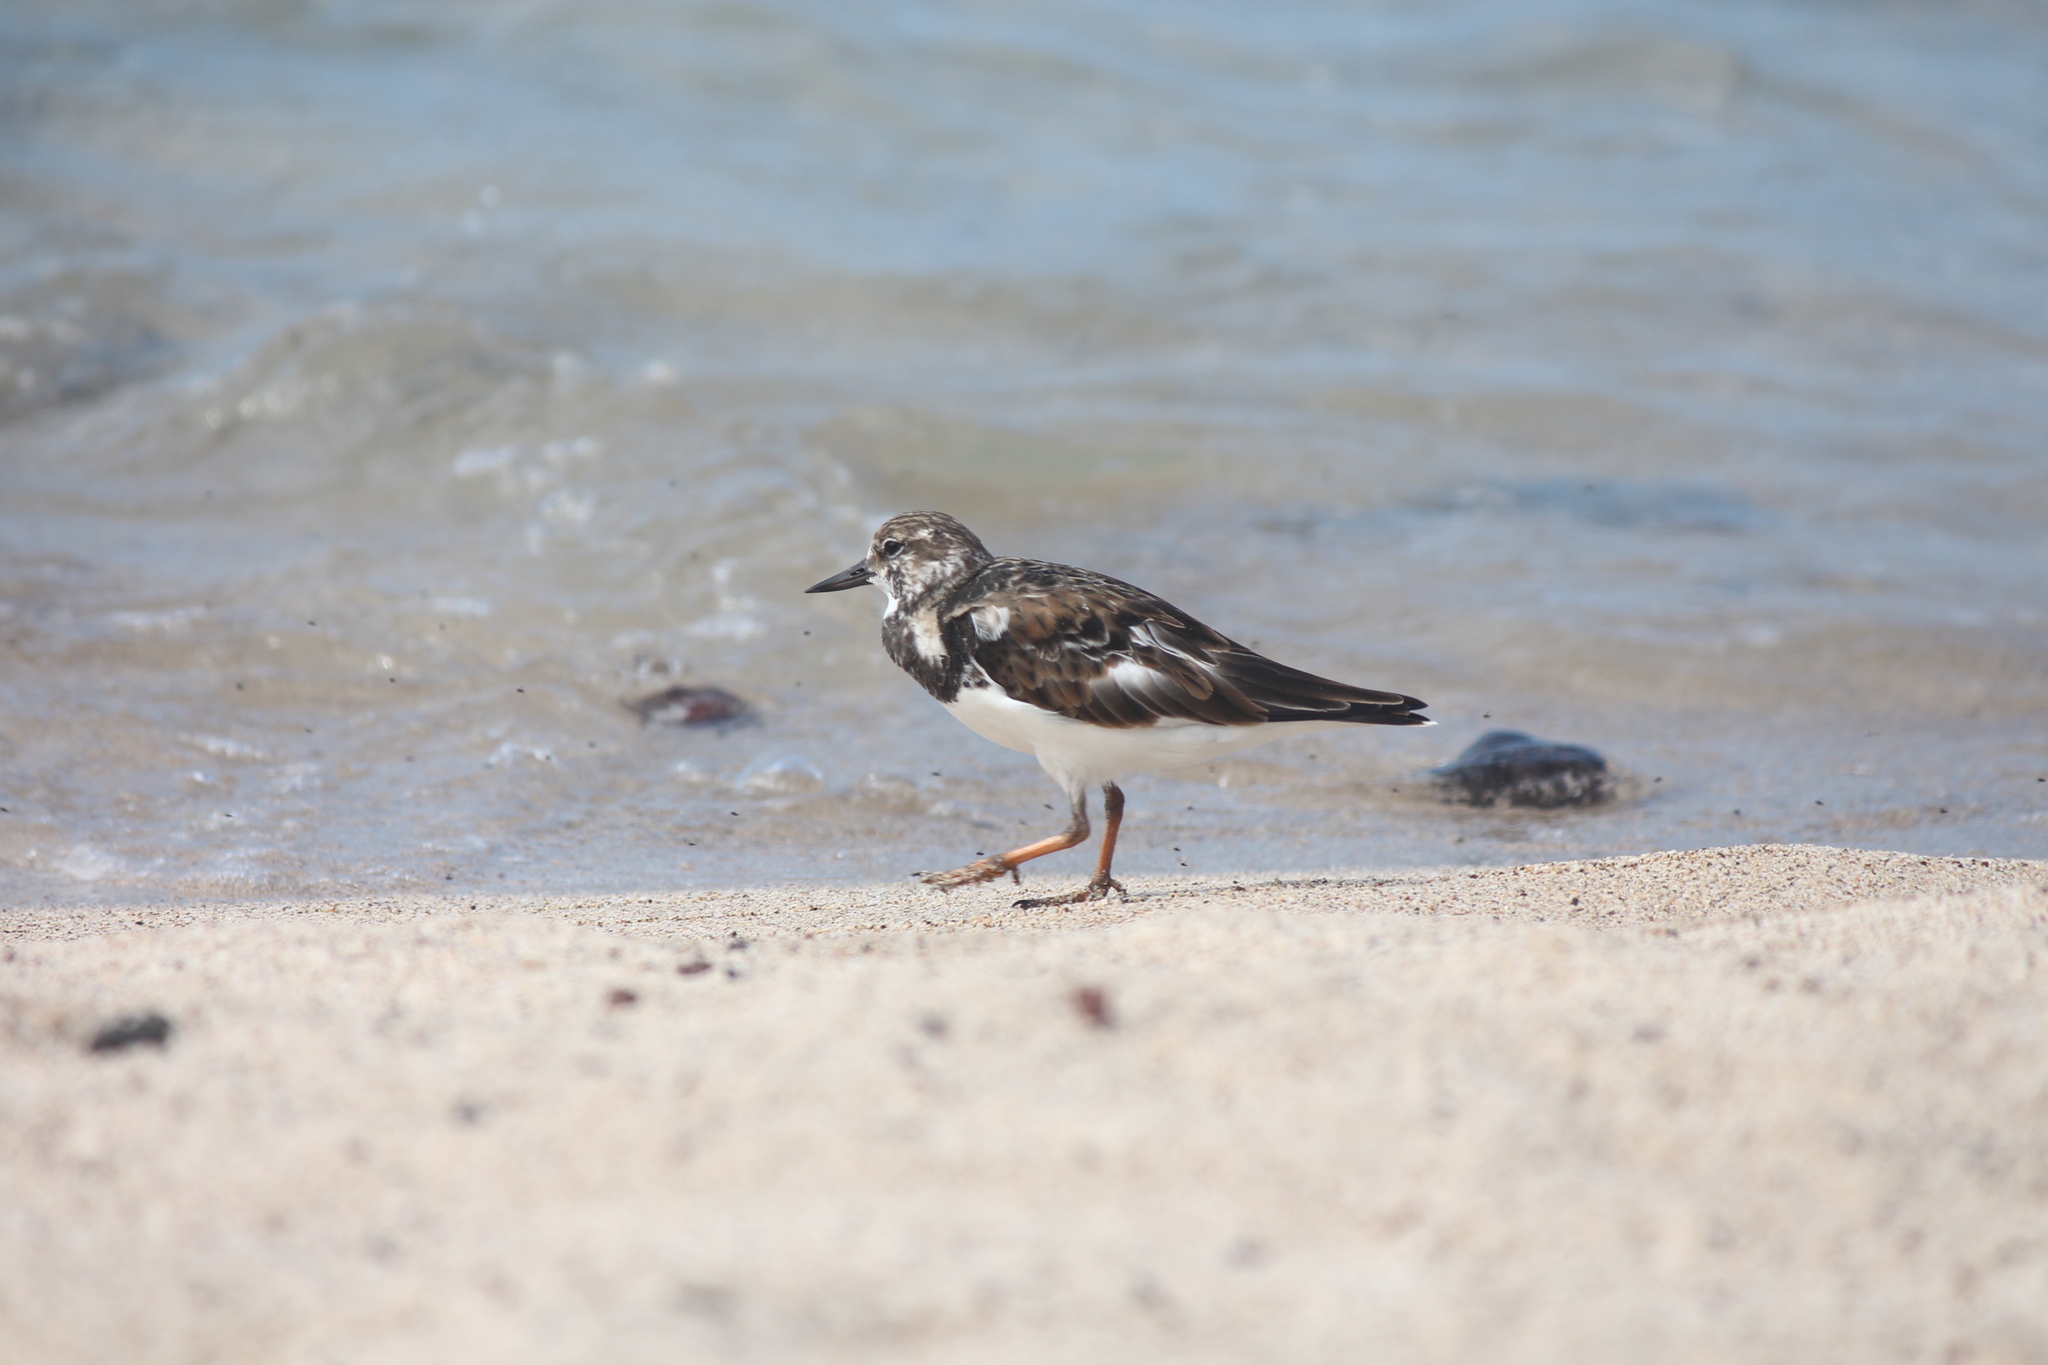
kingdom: Animalia
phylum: Chordata
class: Aves
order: Charadriiformes
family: Scolopacidae
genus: Arenaria
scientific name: Arenaria interpres
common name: Ruddy turnstone
